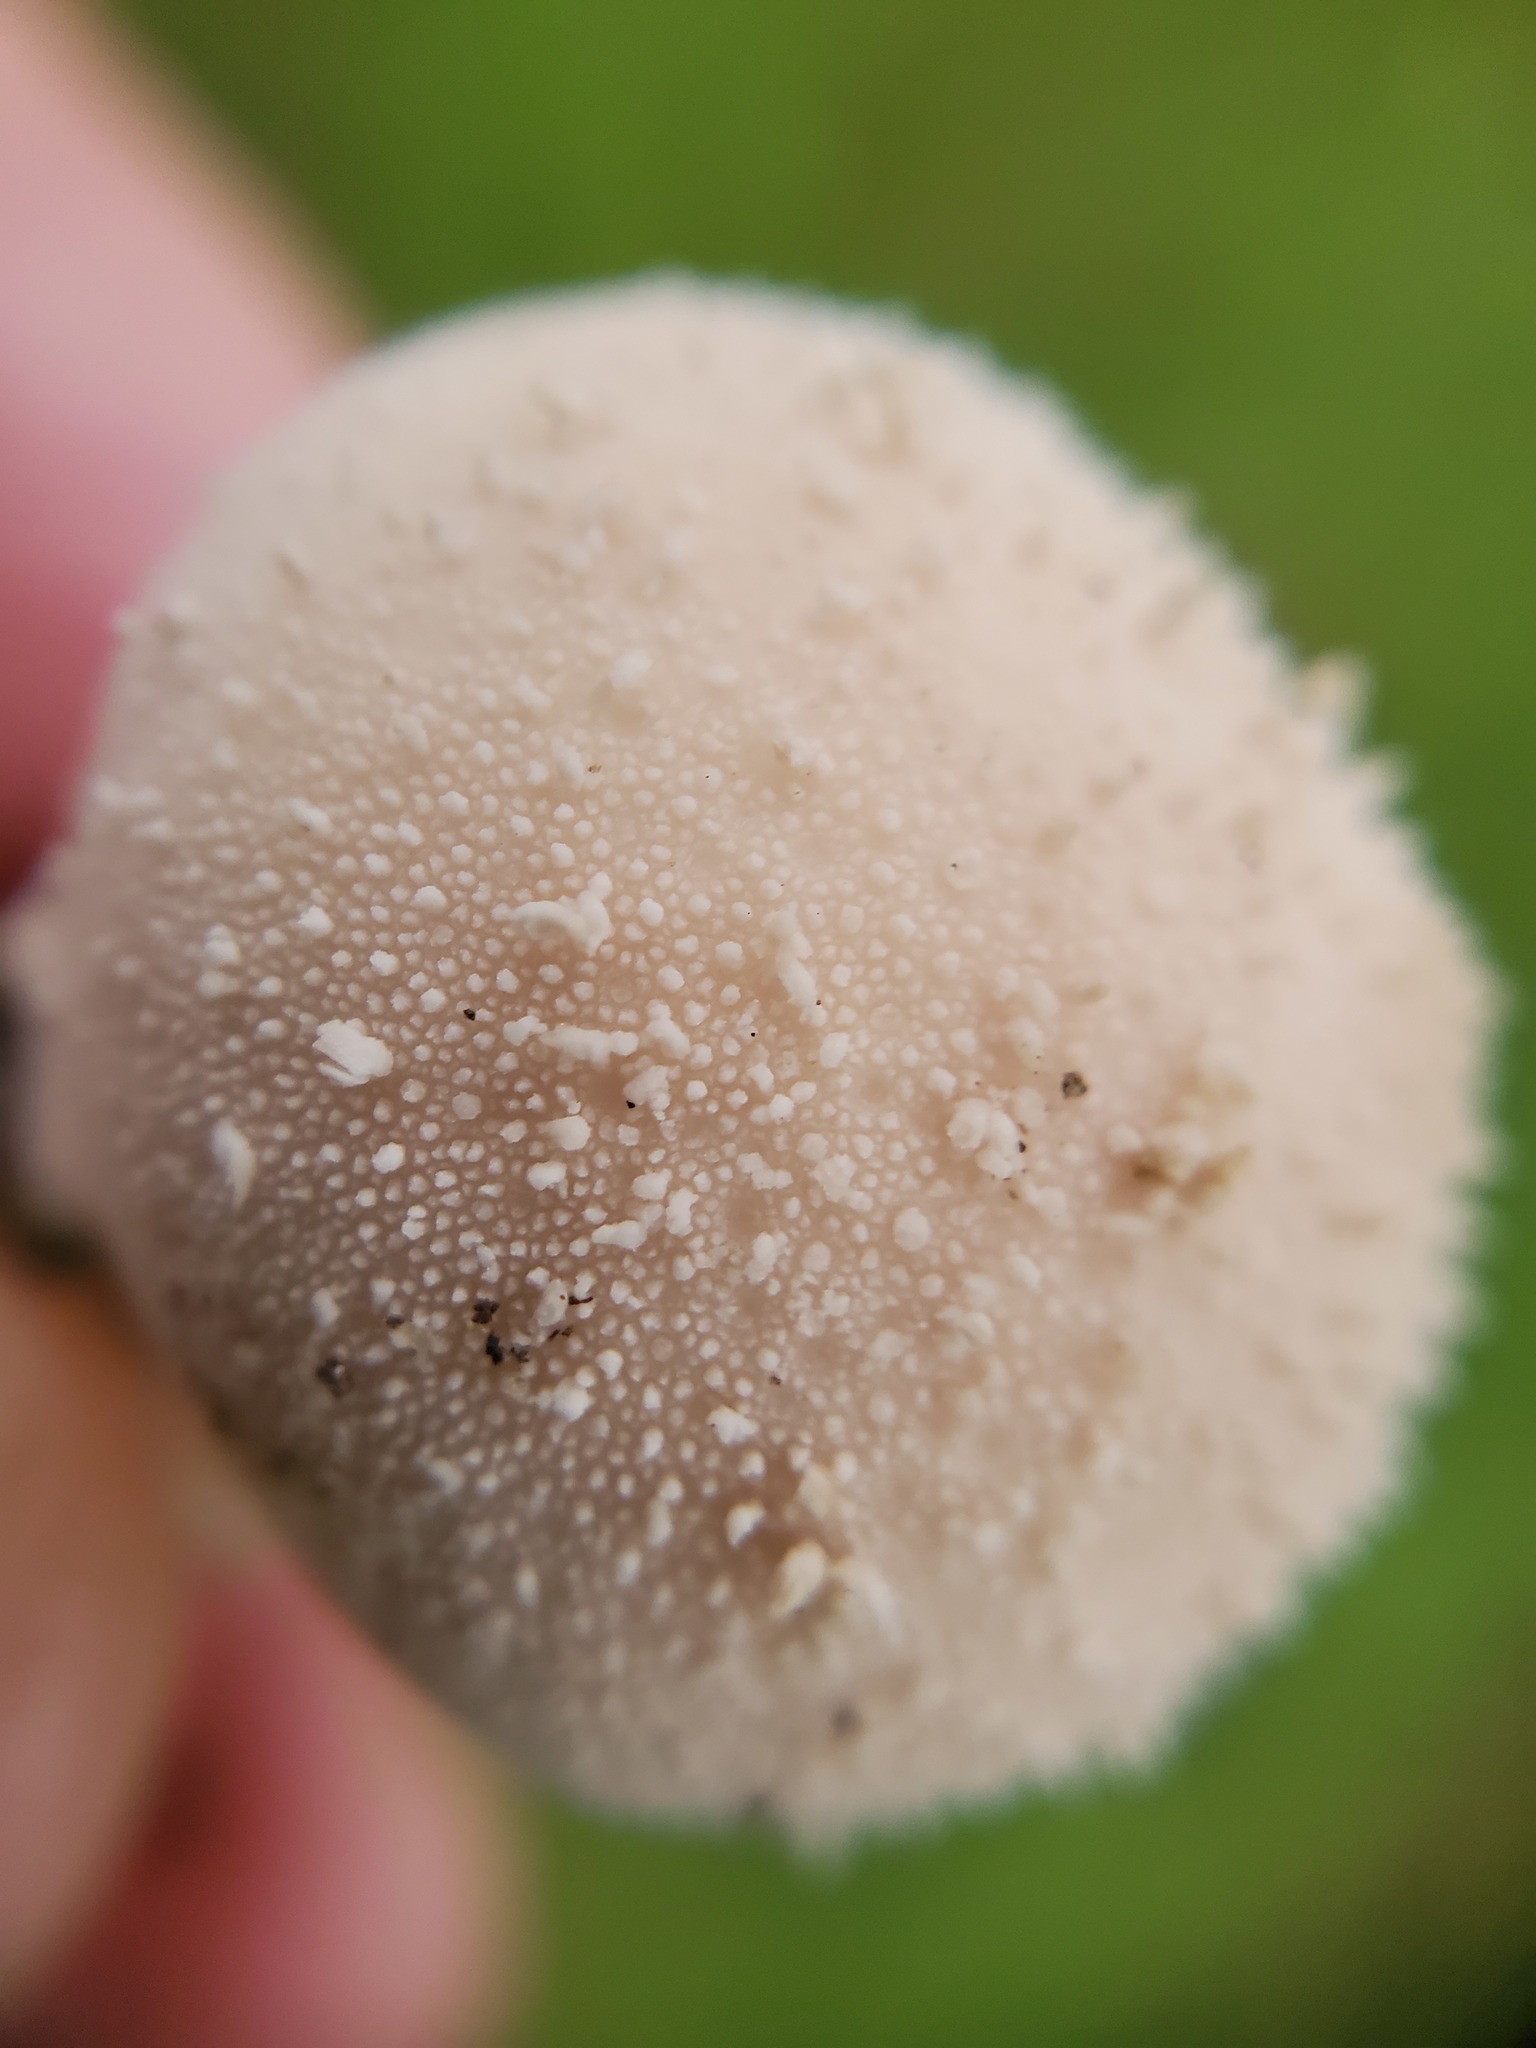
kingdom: Fungi
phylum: Basidiomycota
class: Agaricomycetes
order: Agaricales
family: Lycoperdaceae
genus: Lycoperdon
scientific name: Lycoperdon perlatum
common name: Common puffball
